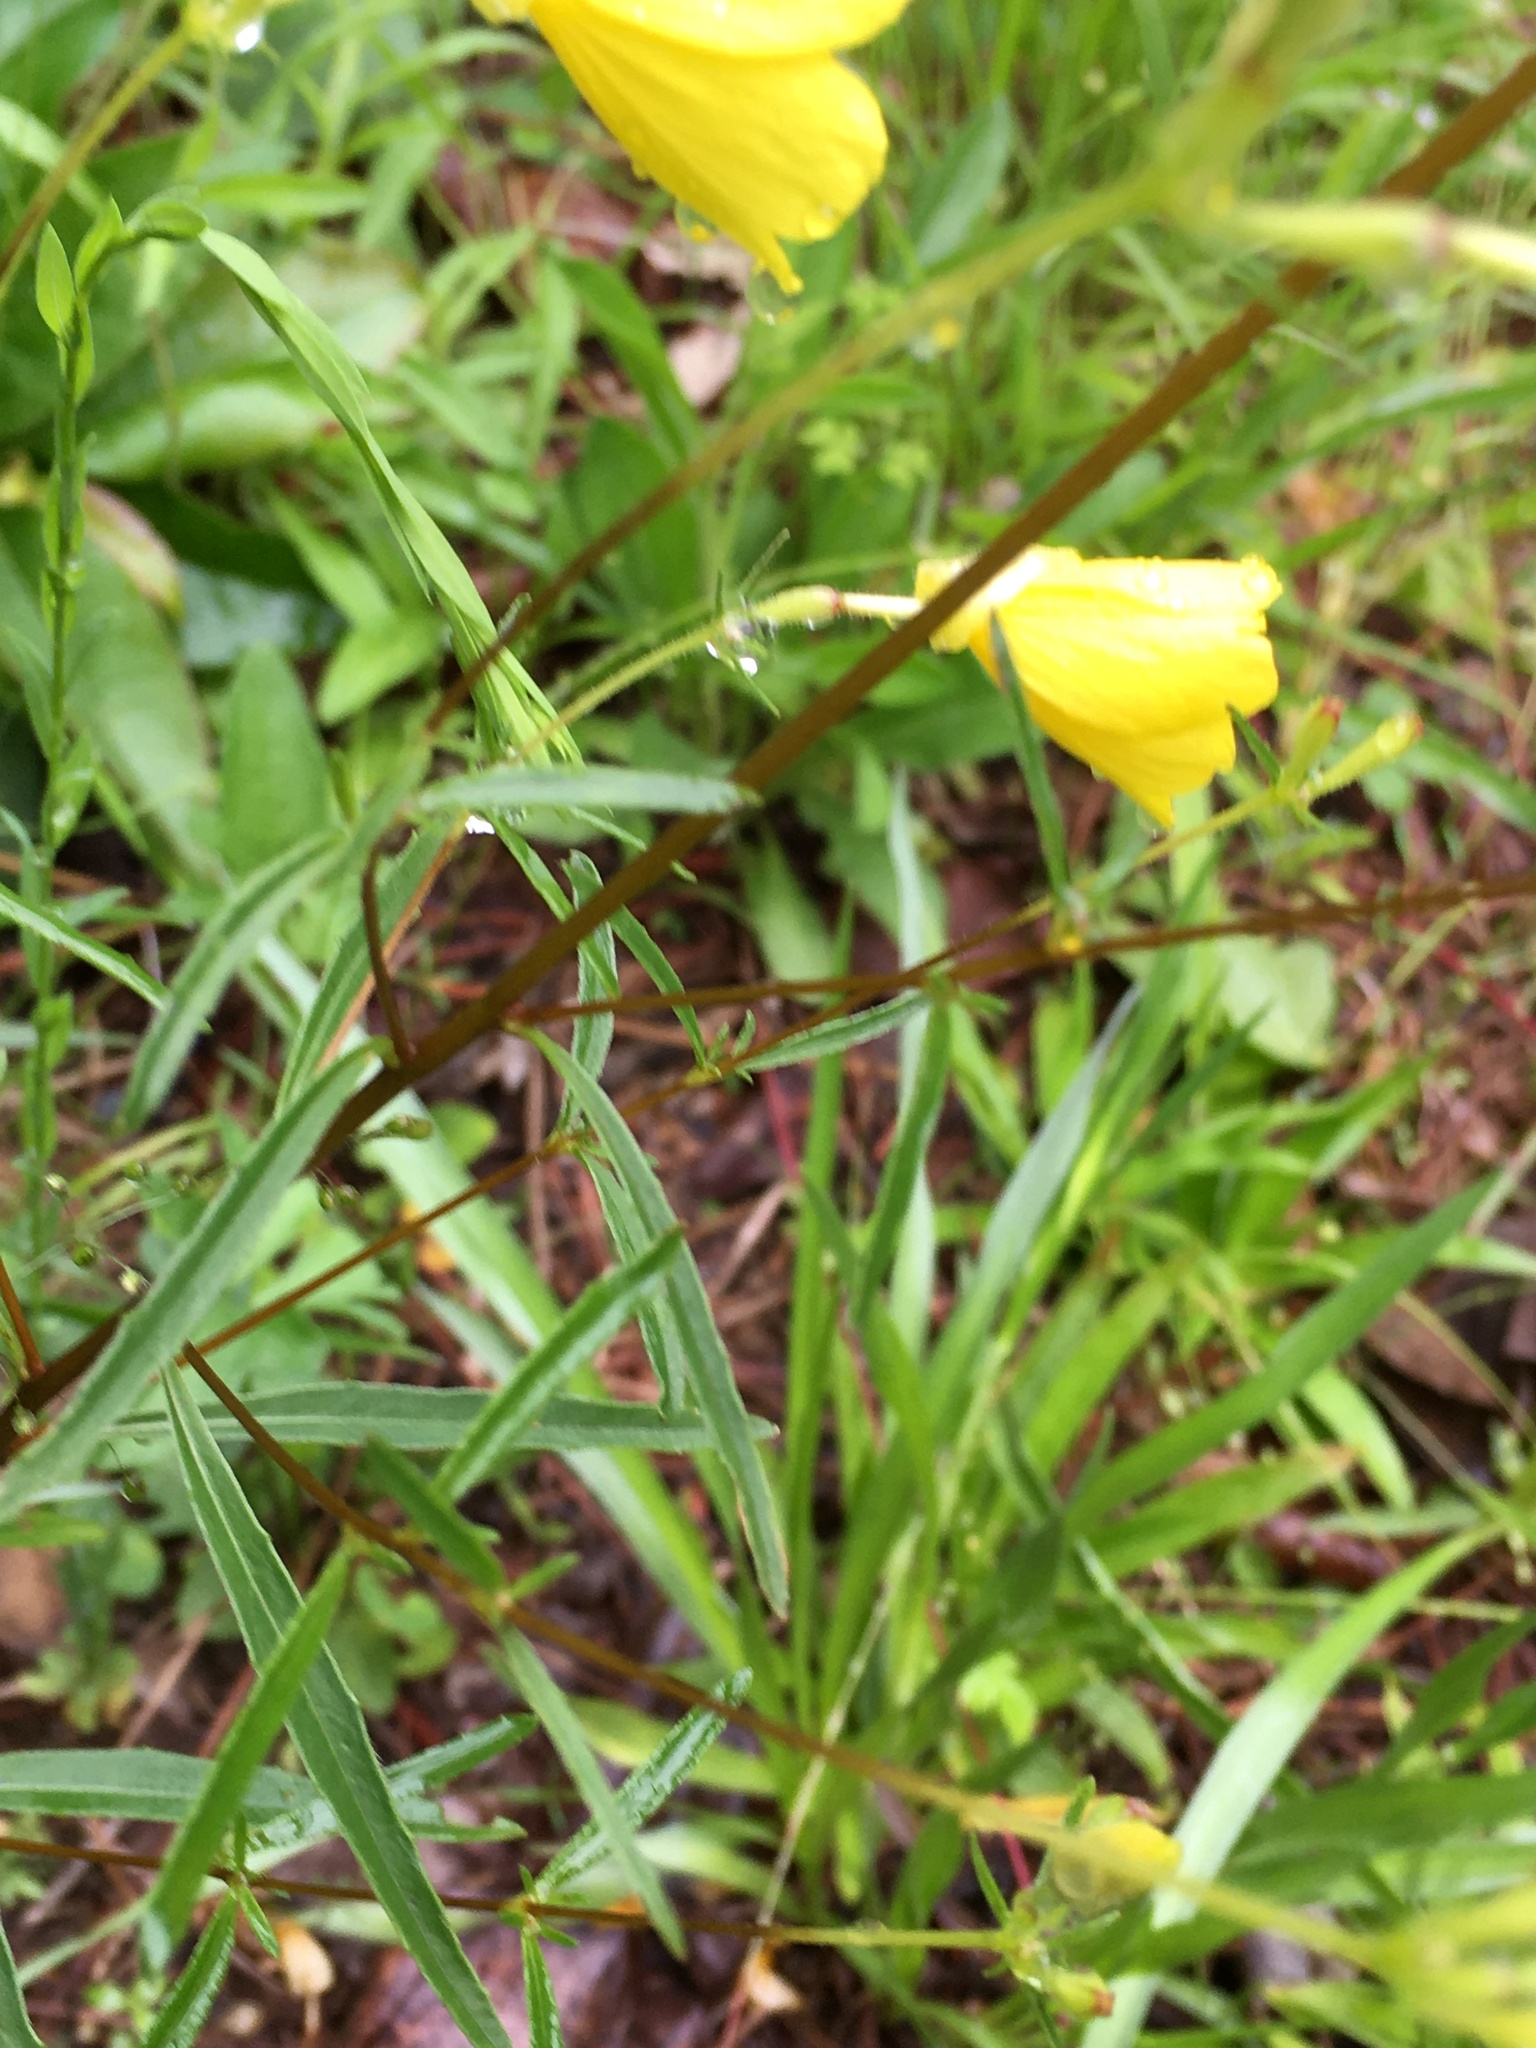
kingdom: Plantae
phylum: Tracheophyta
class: Magnoliopsida
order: Myrtales
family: Onagraceae
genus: Oenothera
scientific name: Oenothera fruticosa
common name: Southern sundrops
